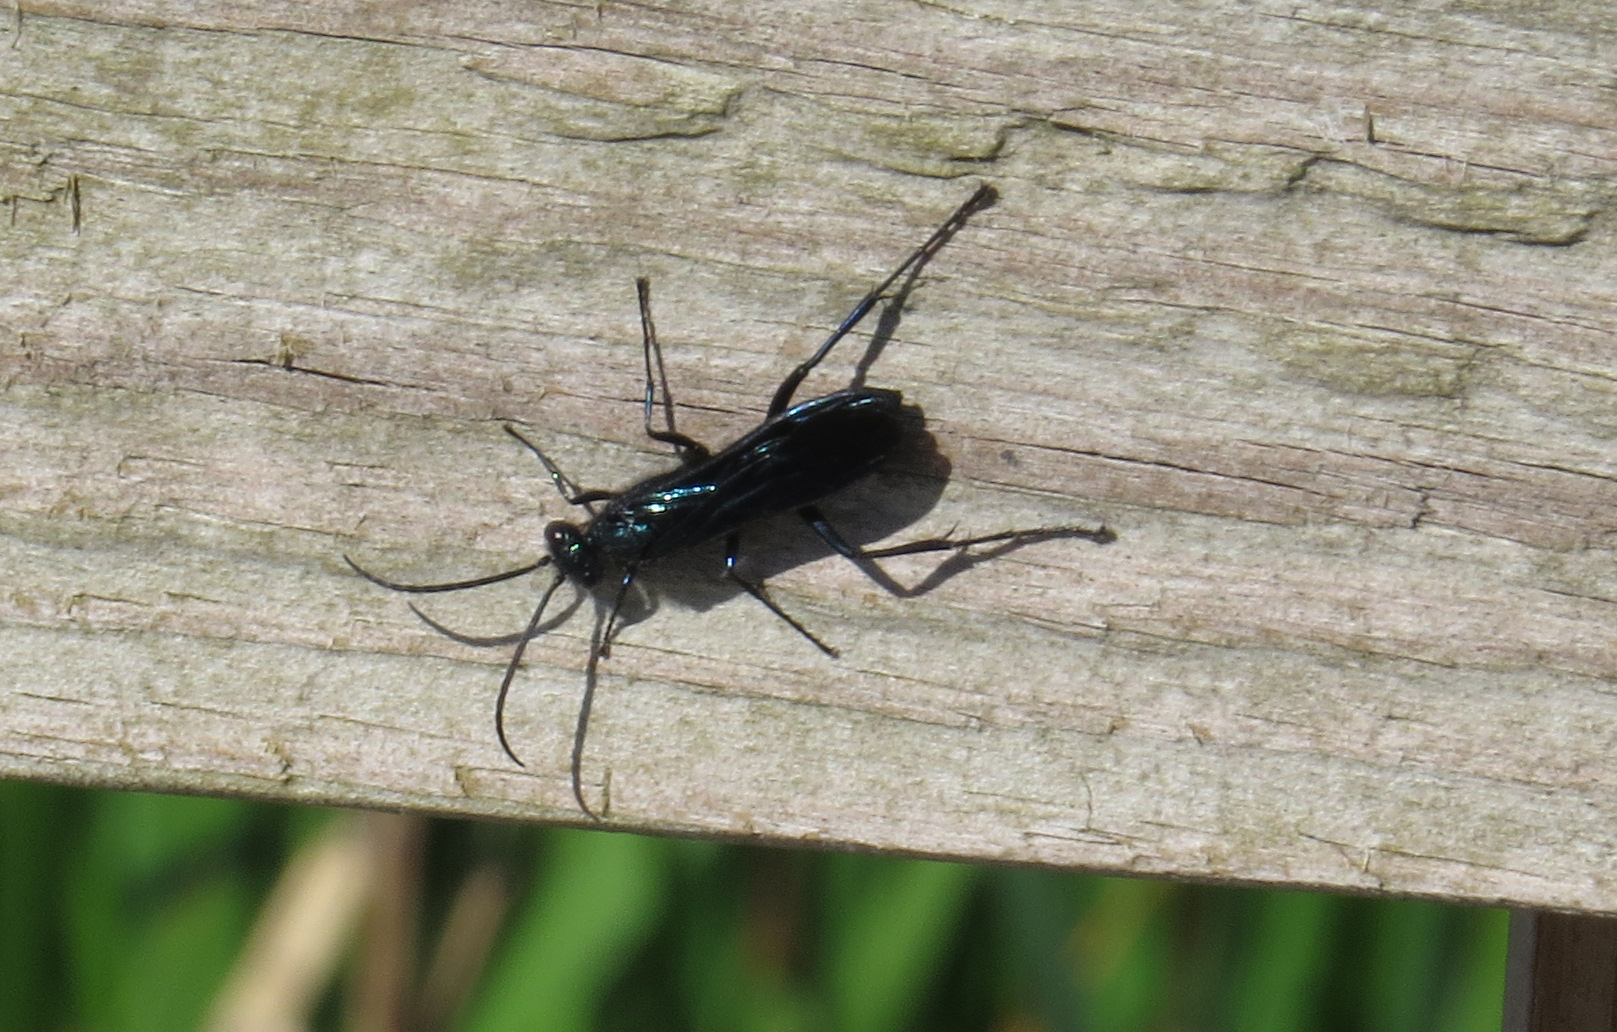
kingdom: Animalia
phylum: Arthropoda
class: Insecta
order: Hymenoptera
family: Sphecidae
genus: Chalybion
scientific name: Chalybion californicum
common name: Mud dauber
